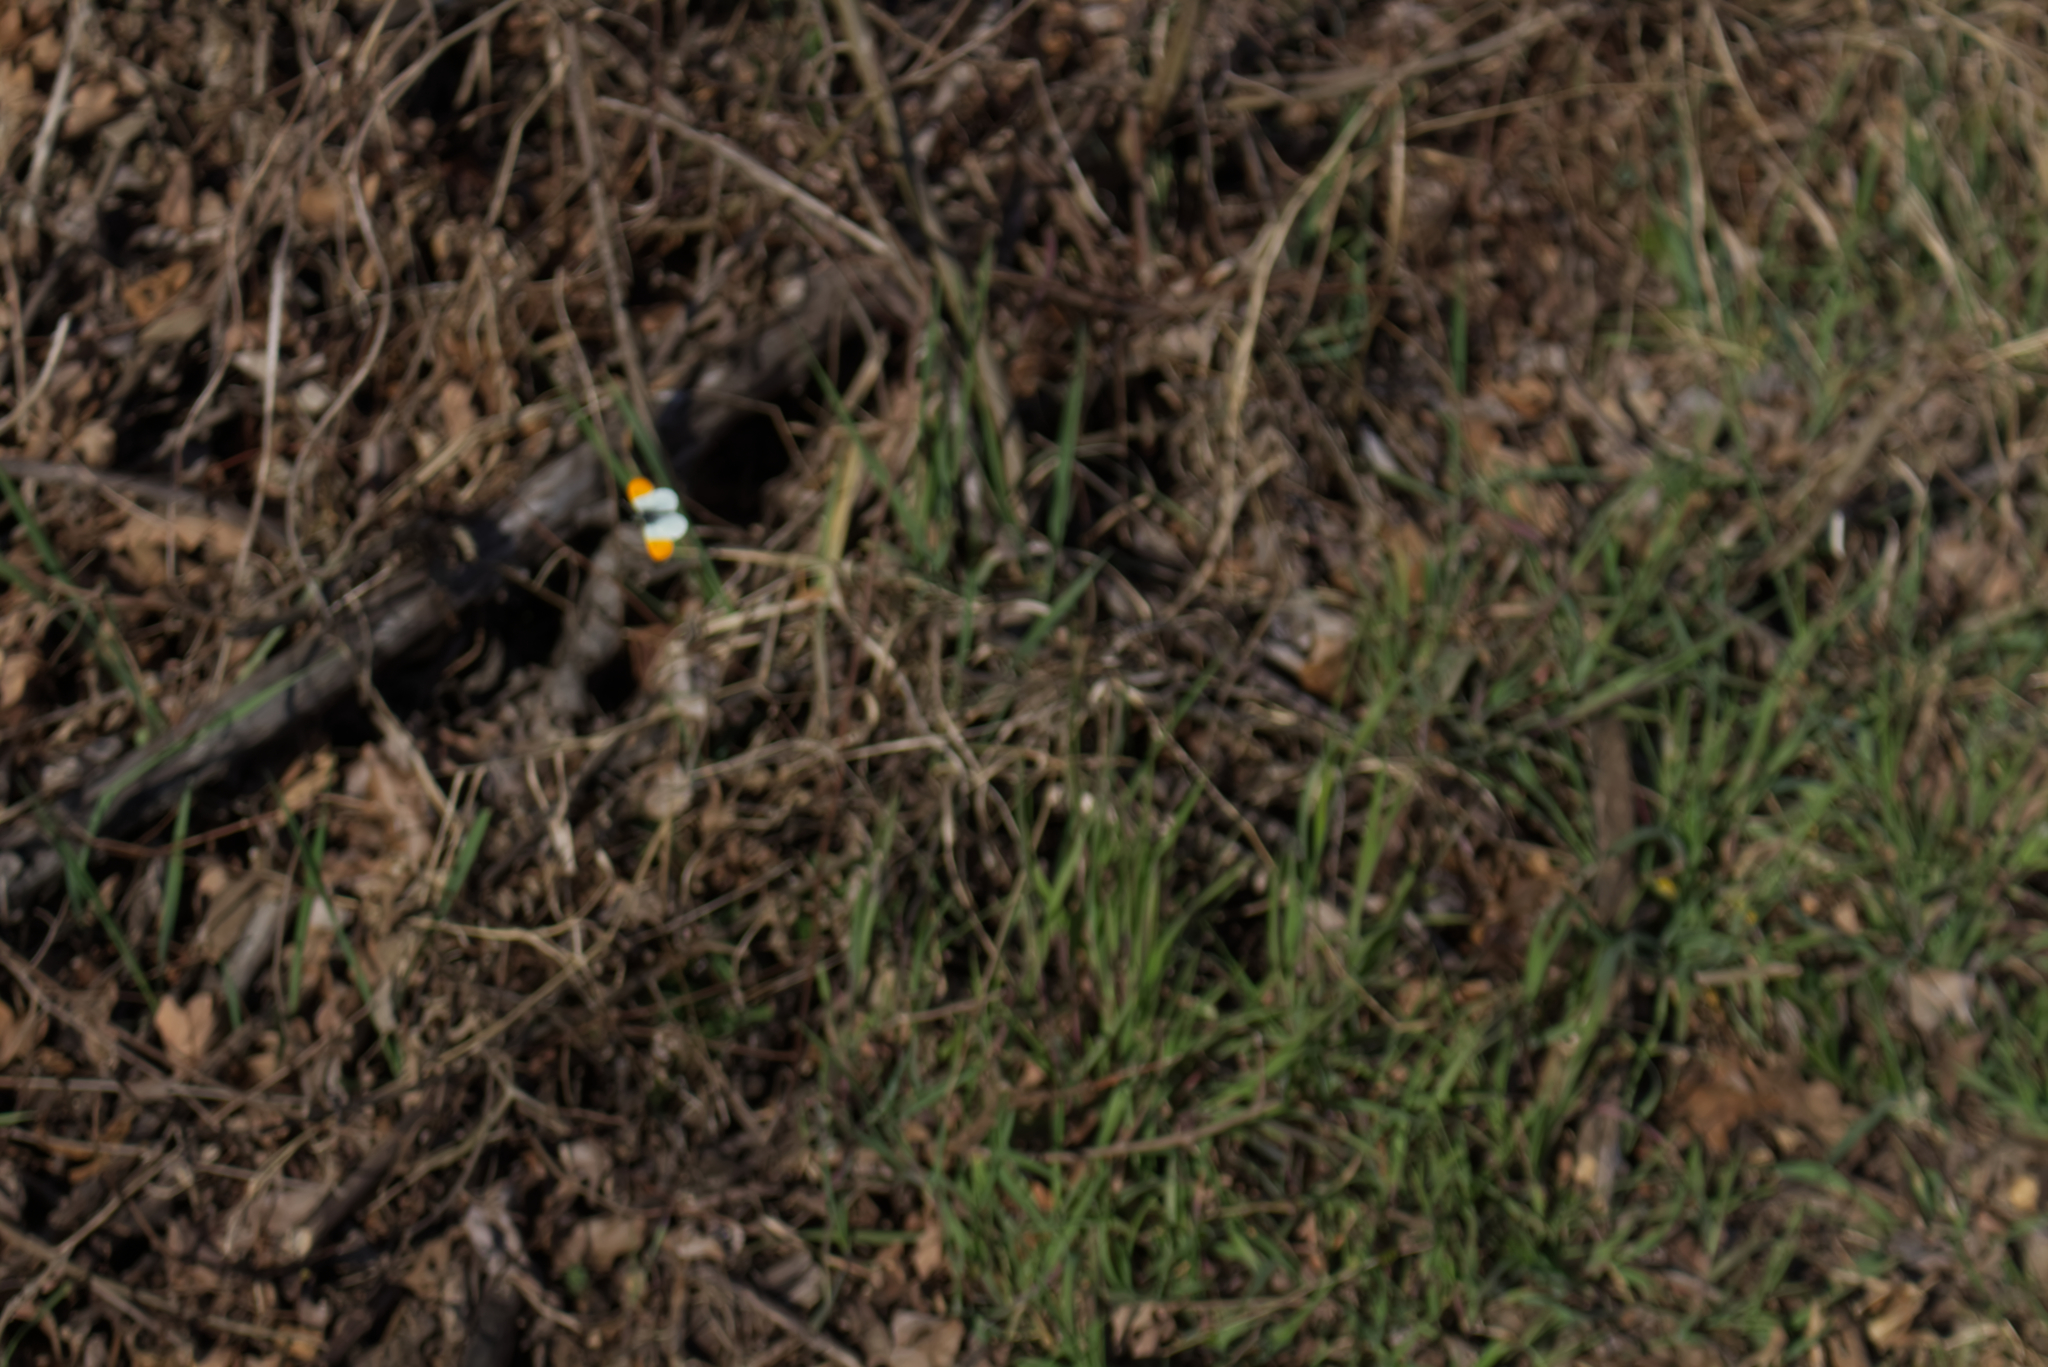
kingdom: Animalia
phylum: Arthropoda
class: Insecta
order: Lepidoptera
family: Pieridae
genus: Anthocharis
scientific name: Anthocharis cardamines
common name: Orange-tip
